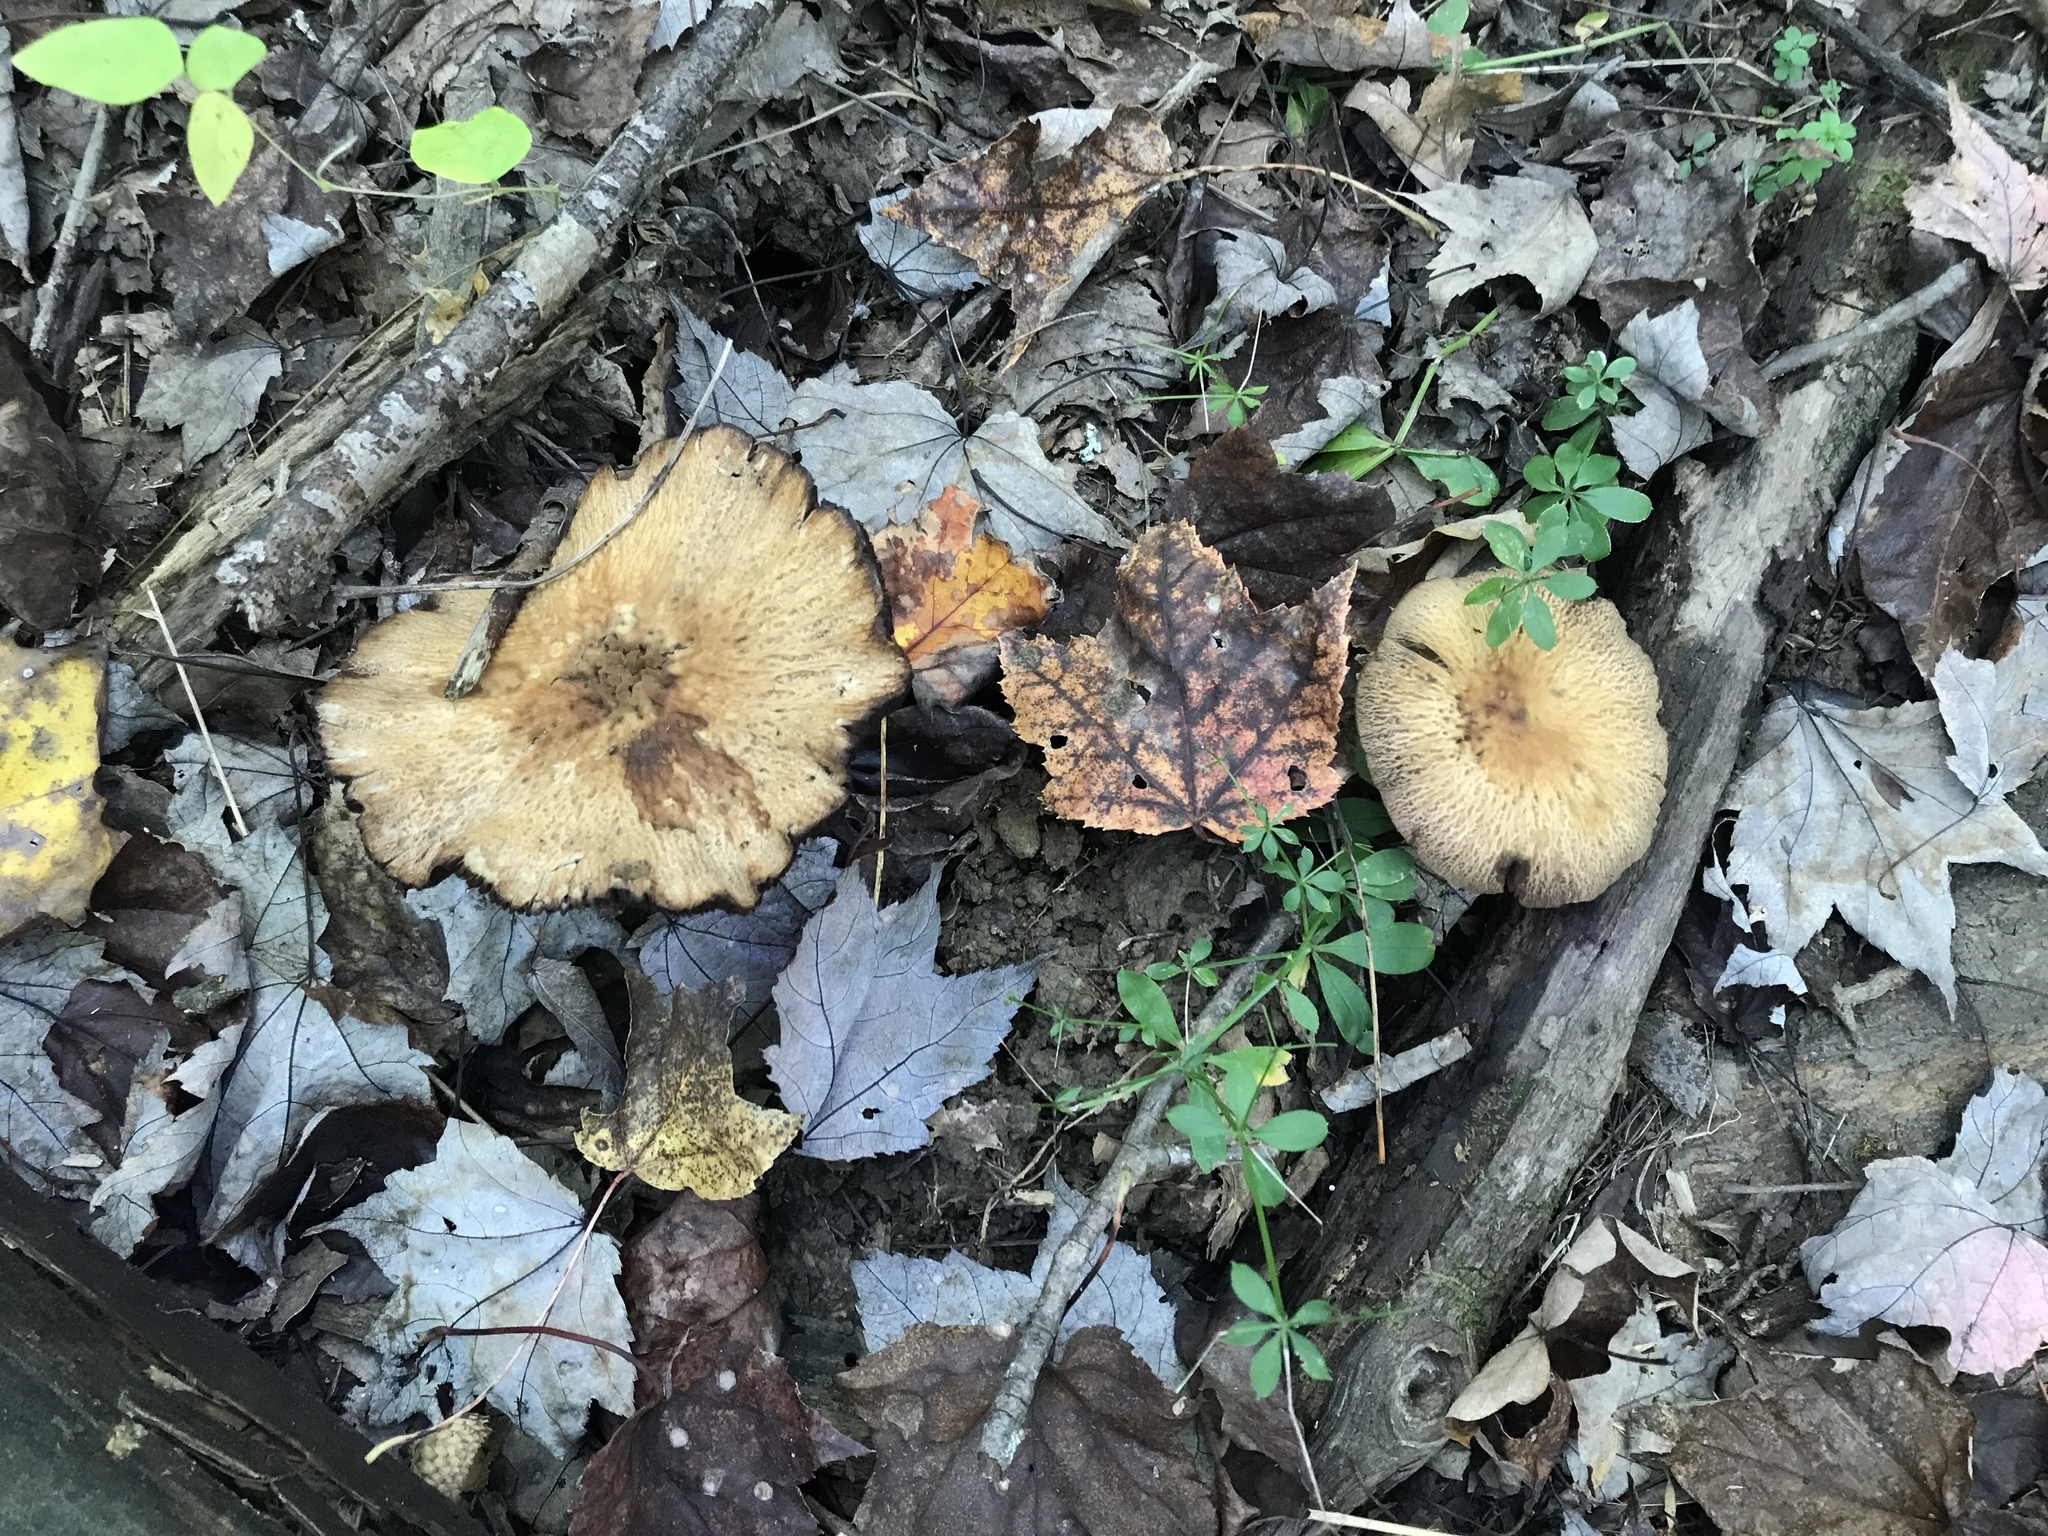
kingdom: Fungi
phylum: Basidiomycota
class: Agaricomycetes
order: Agaricales
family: Psathyrellaceae
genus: Typhrasa
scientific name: Typhrasa gossypina
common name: Wrinkled psathyrella
